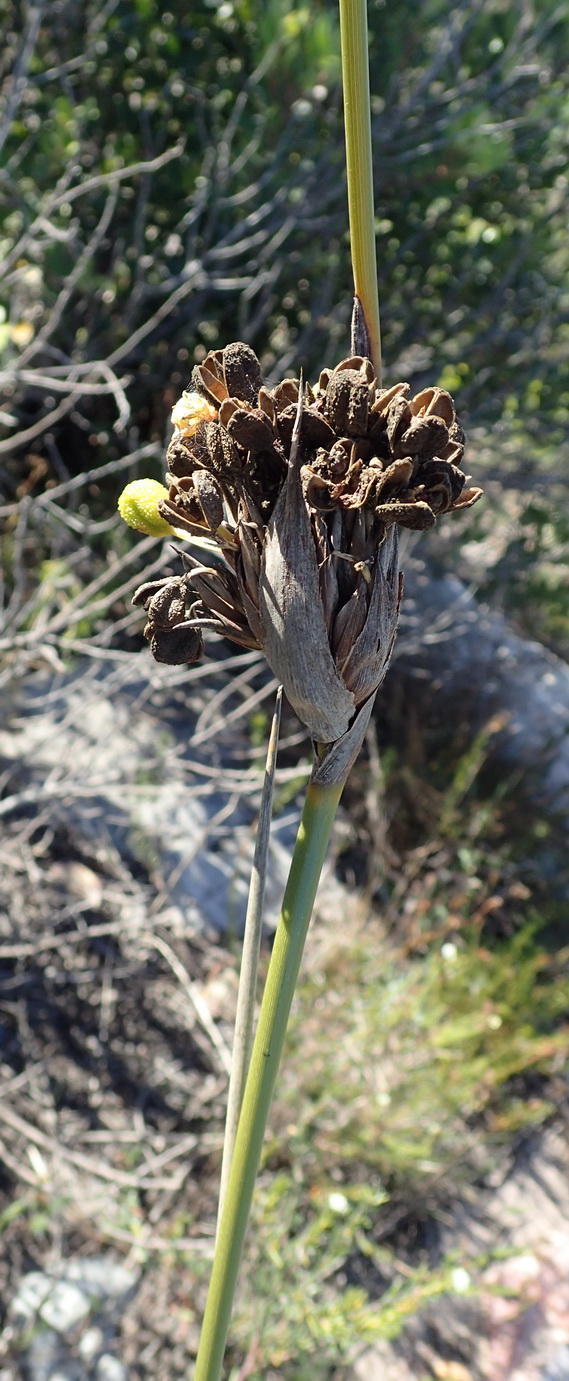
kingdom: Plantae
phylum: Tracheophyta
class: Liliopsida
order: Asparagales
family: Iridaceae
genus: Bobartia
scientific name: Bobartia robusta
